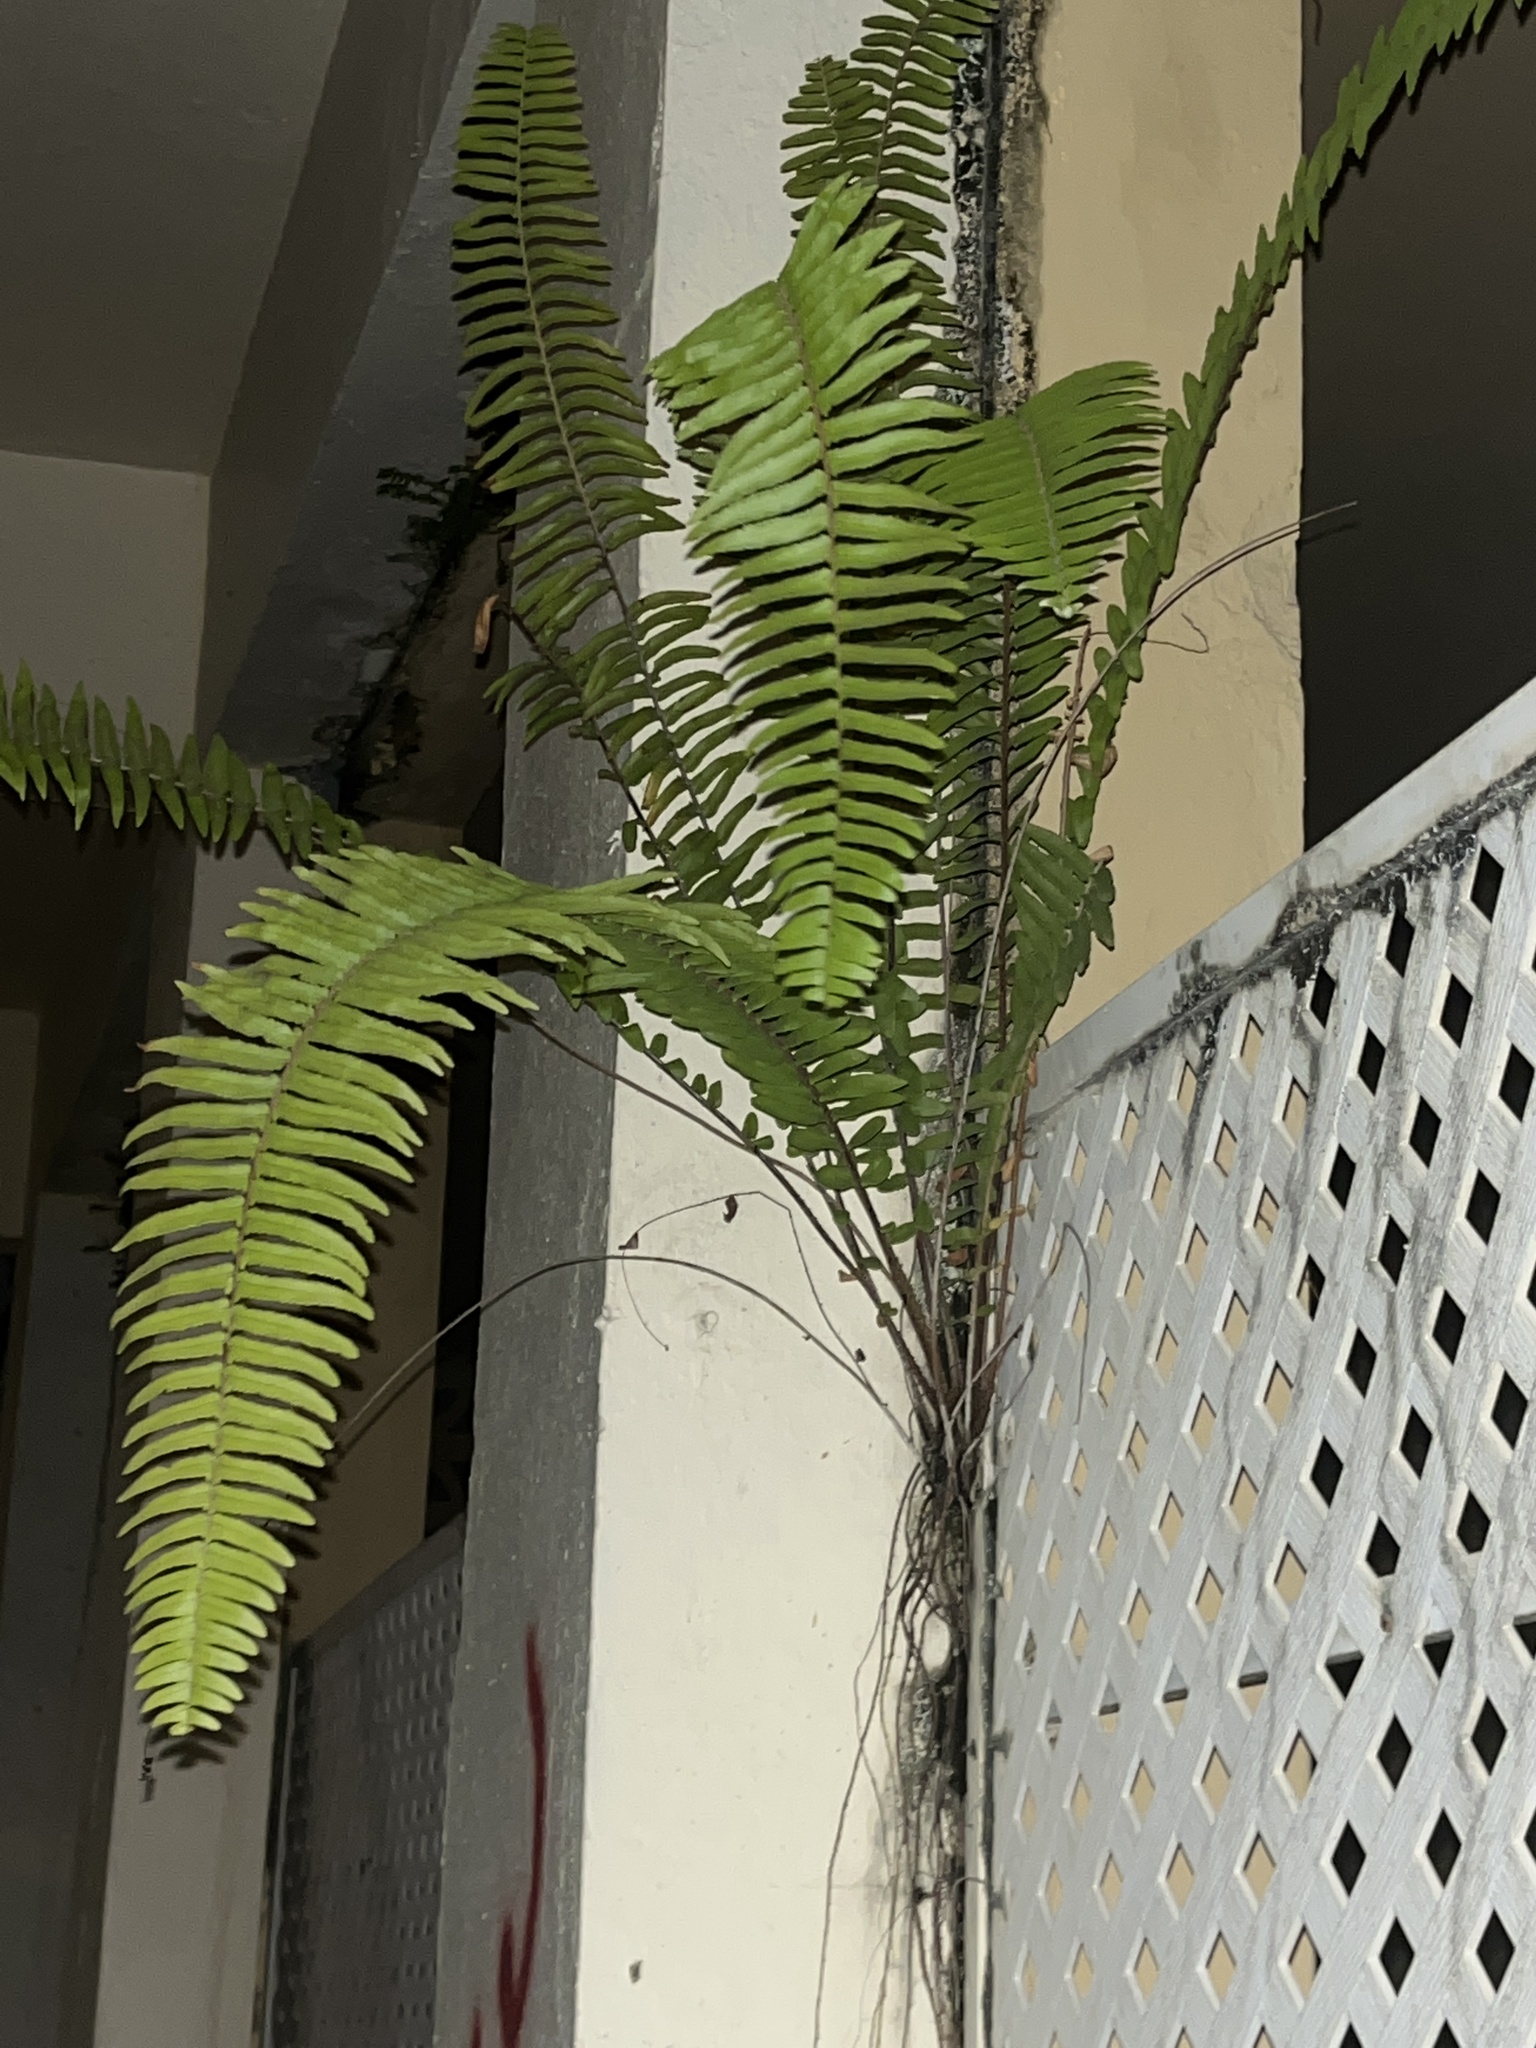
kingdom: Plantae
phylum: Tracheophyta
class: Polypodiopsida
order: Polypodiales
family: Nephrolepidaceae
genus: Nephrolepis
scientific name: Nephrolepis brownii
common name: Asian swordfern
